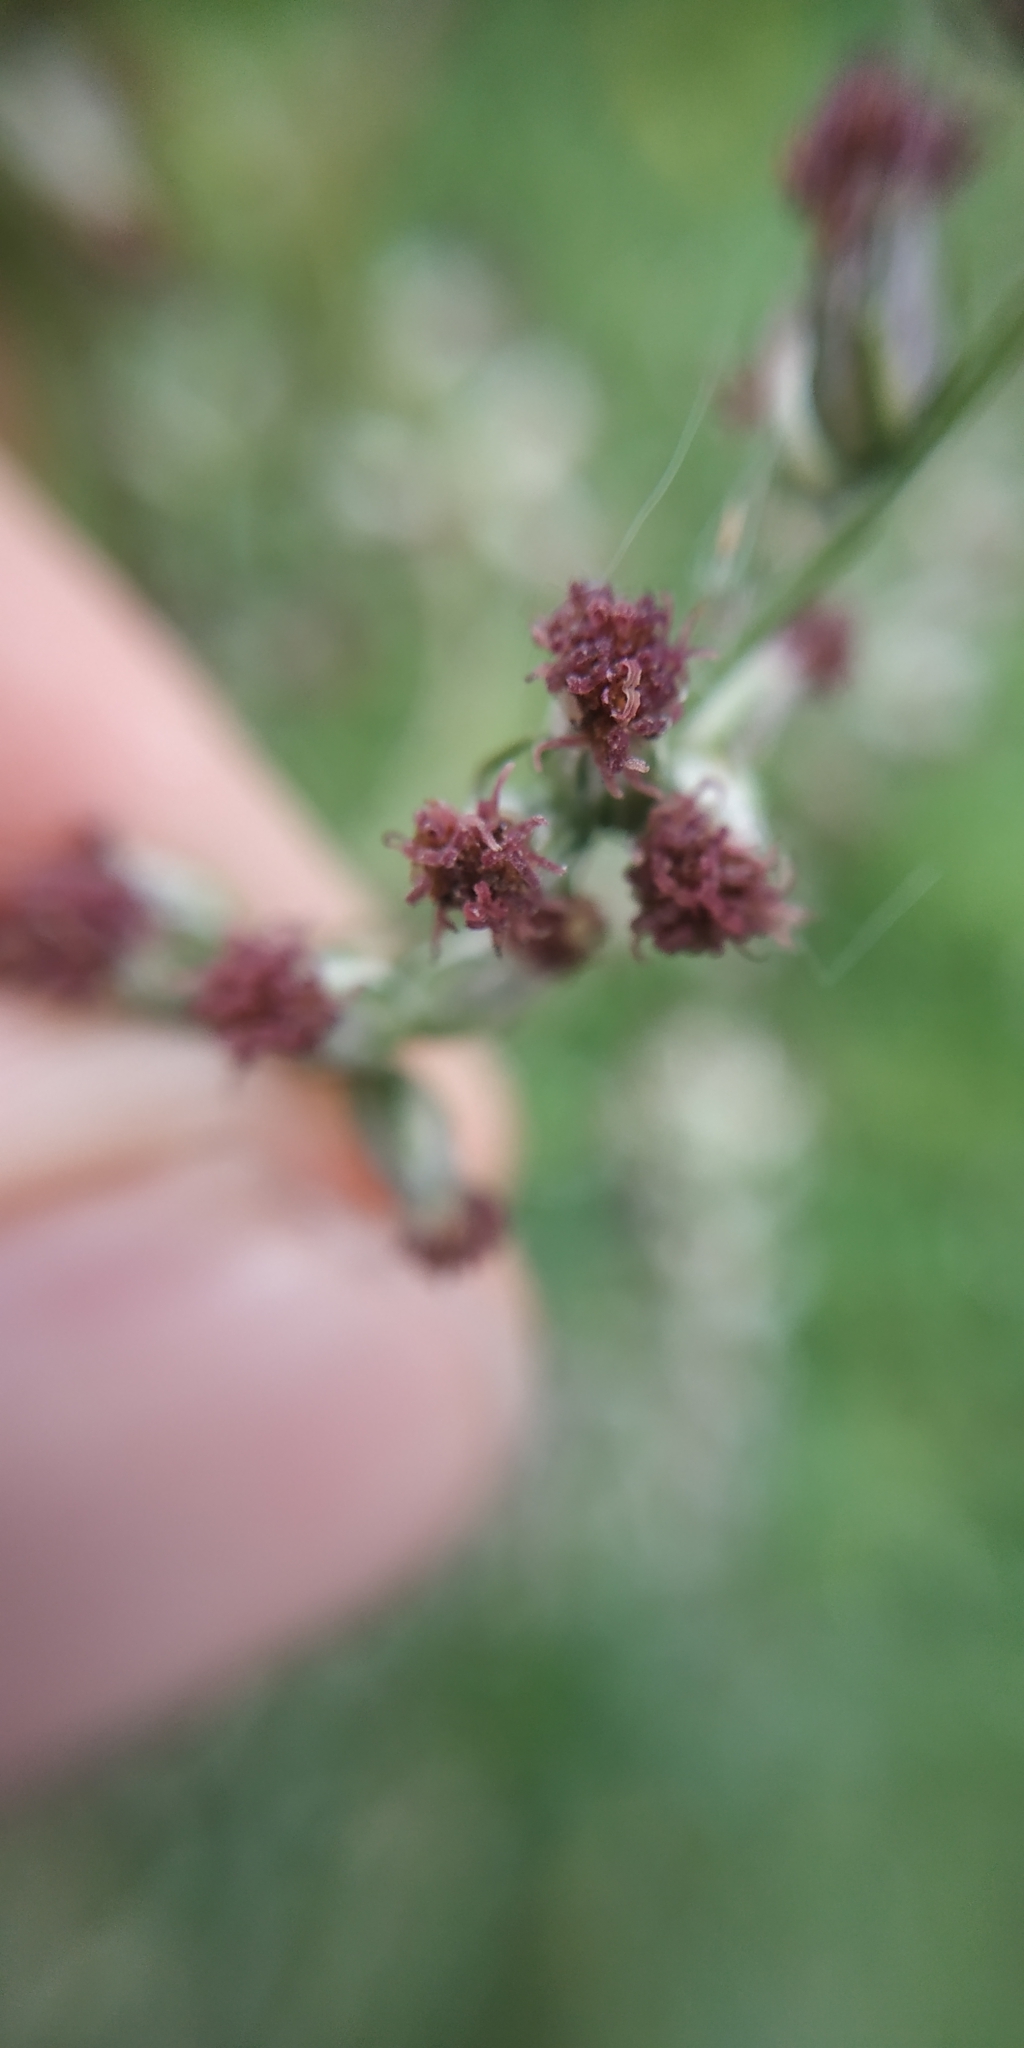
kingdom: Plantae
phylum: Tracheophyta
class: Magnoliopsida
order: Asterales
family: Asteraceae
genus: Artemisia
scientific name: Artemisia vulgaris
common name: Mugwort
